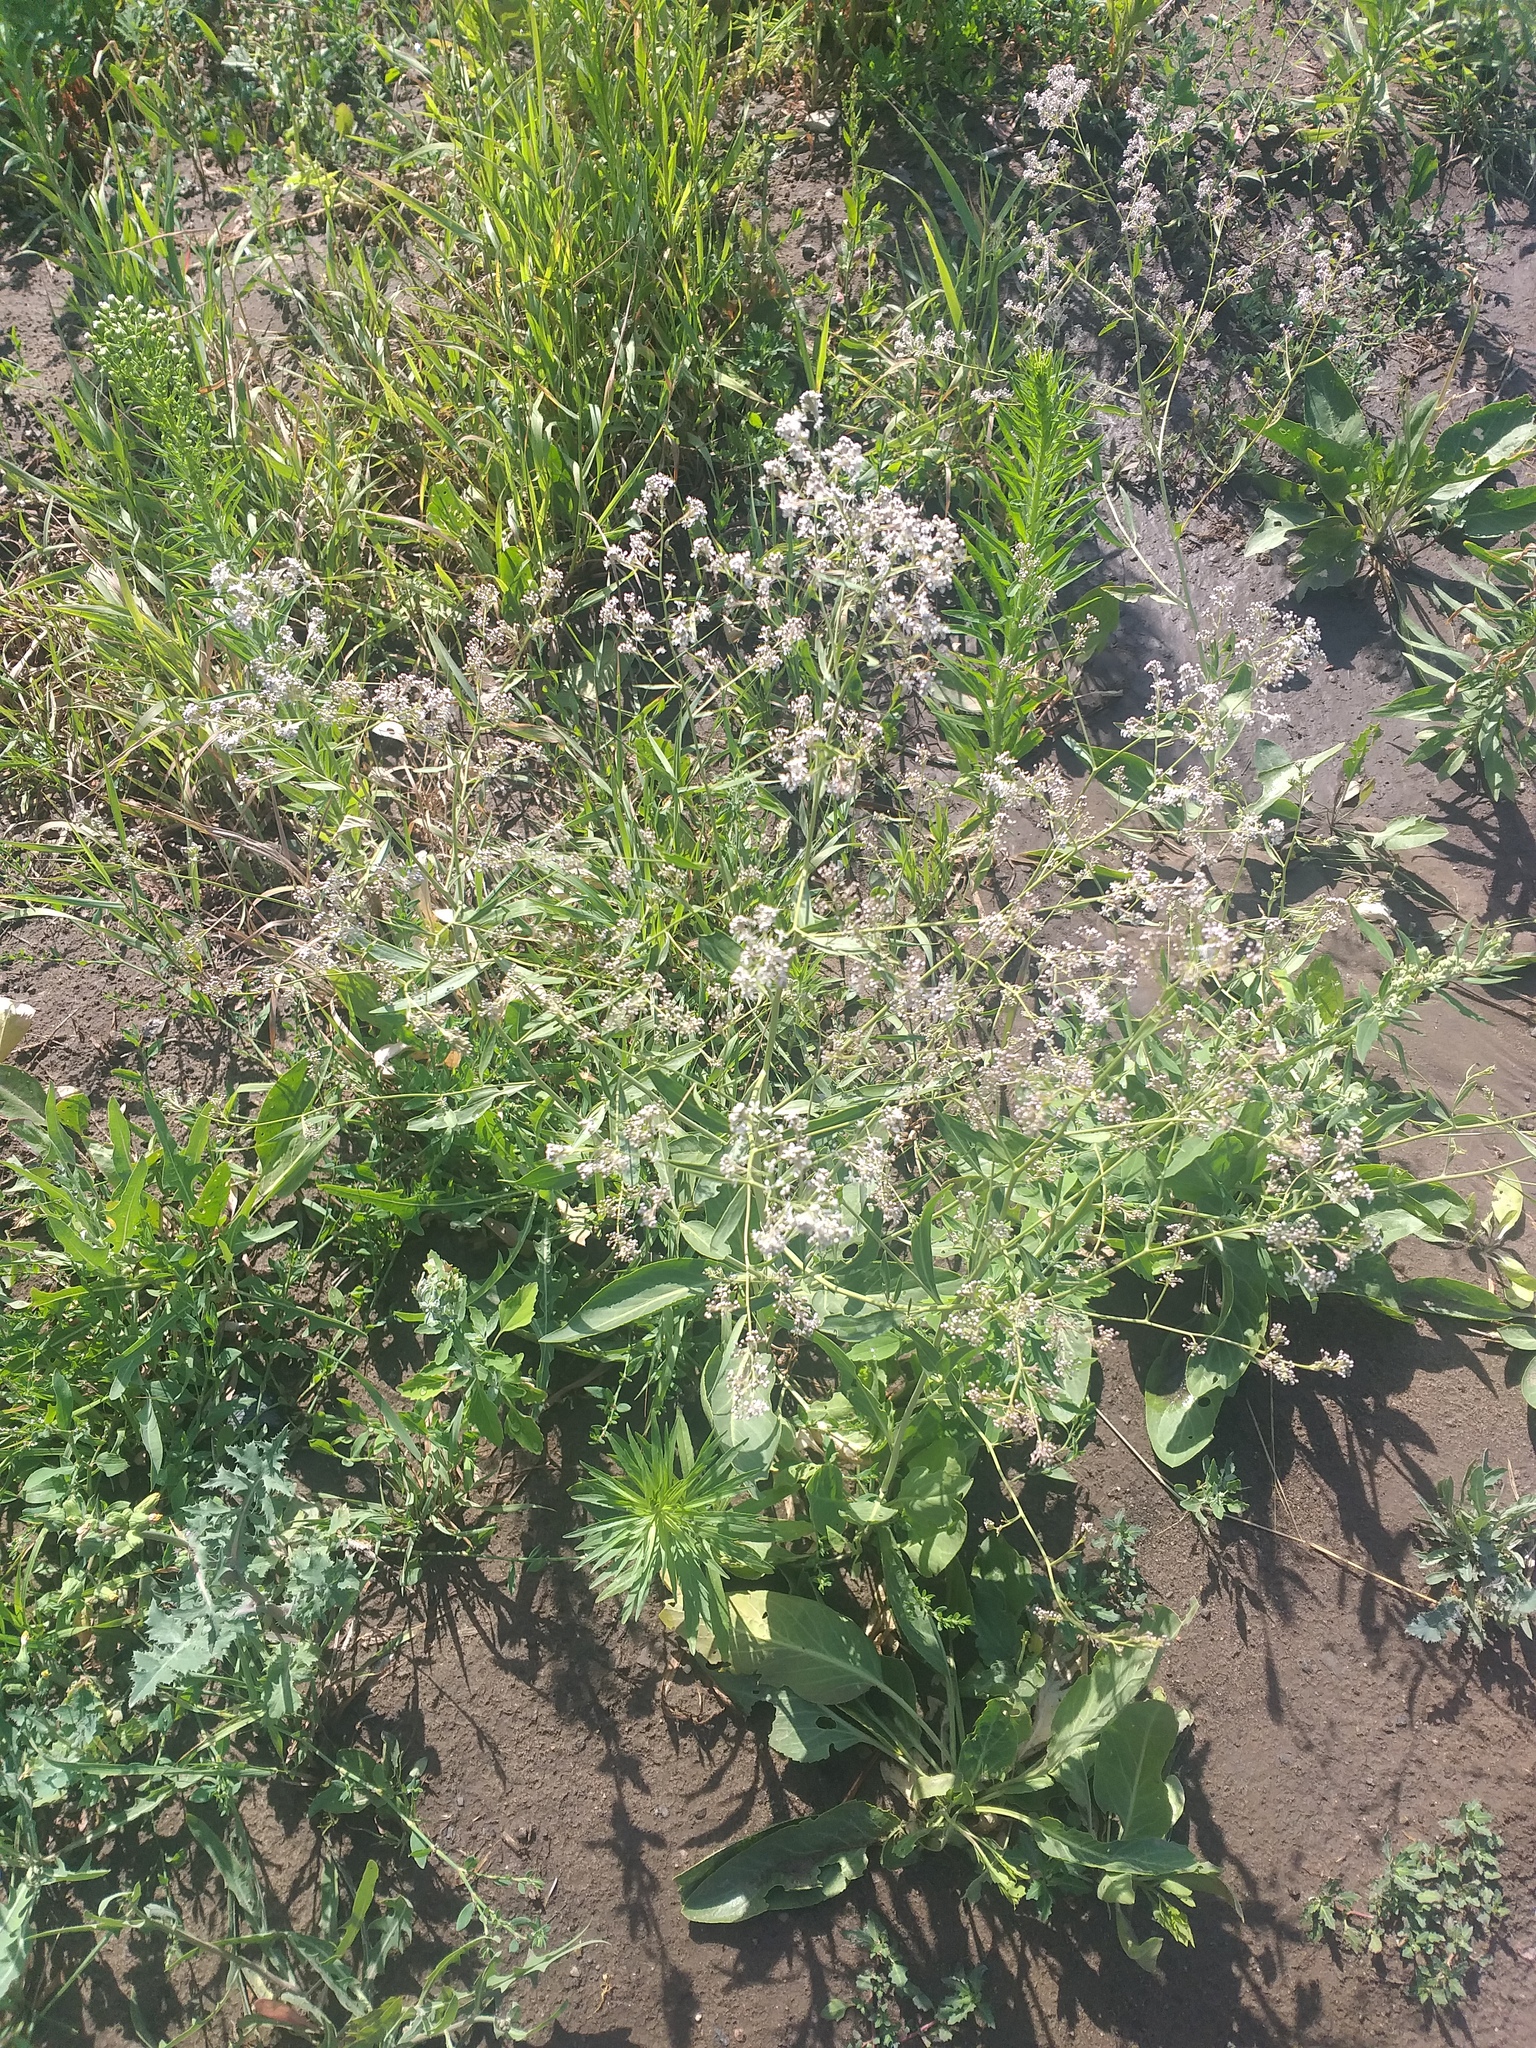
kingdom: Plantae
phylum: Tracheophyta
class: Magnoliopsida
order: Brassicales
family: Brassicaceae
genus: Lepidium
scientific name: Lepidium latifolium
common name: Dittander
